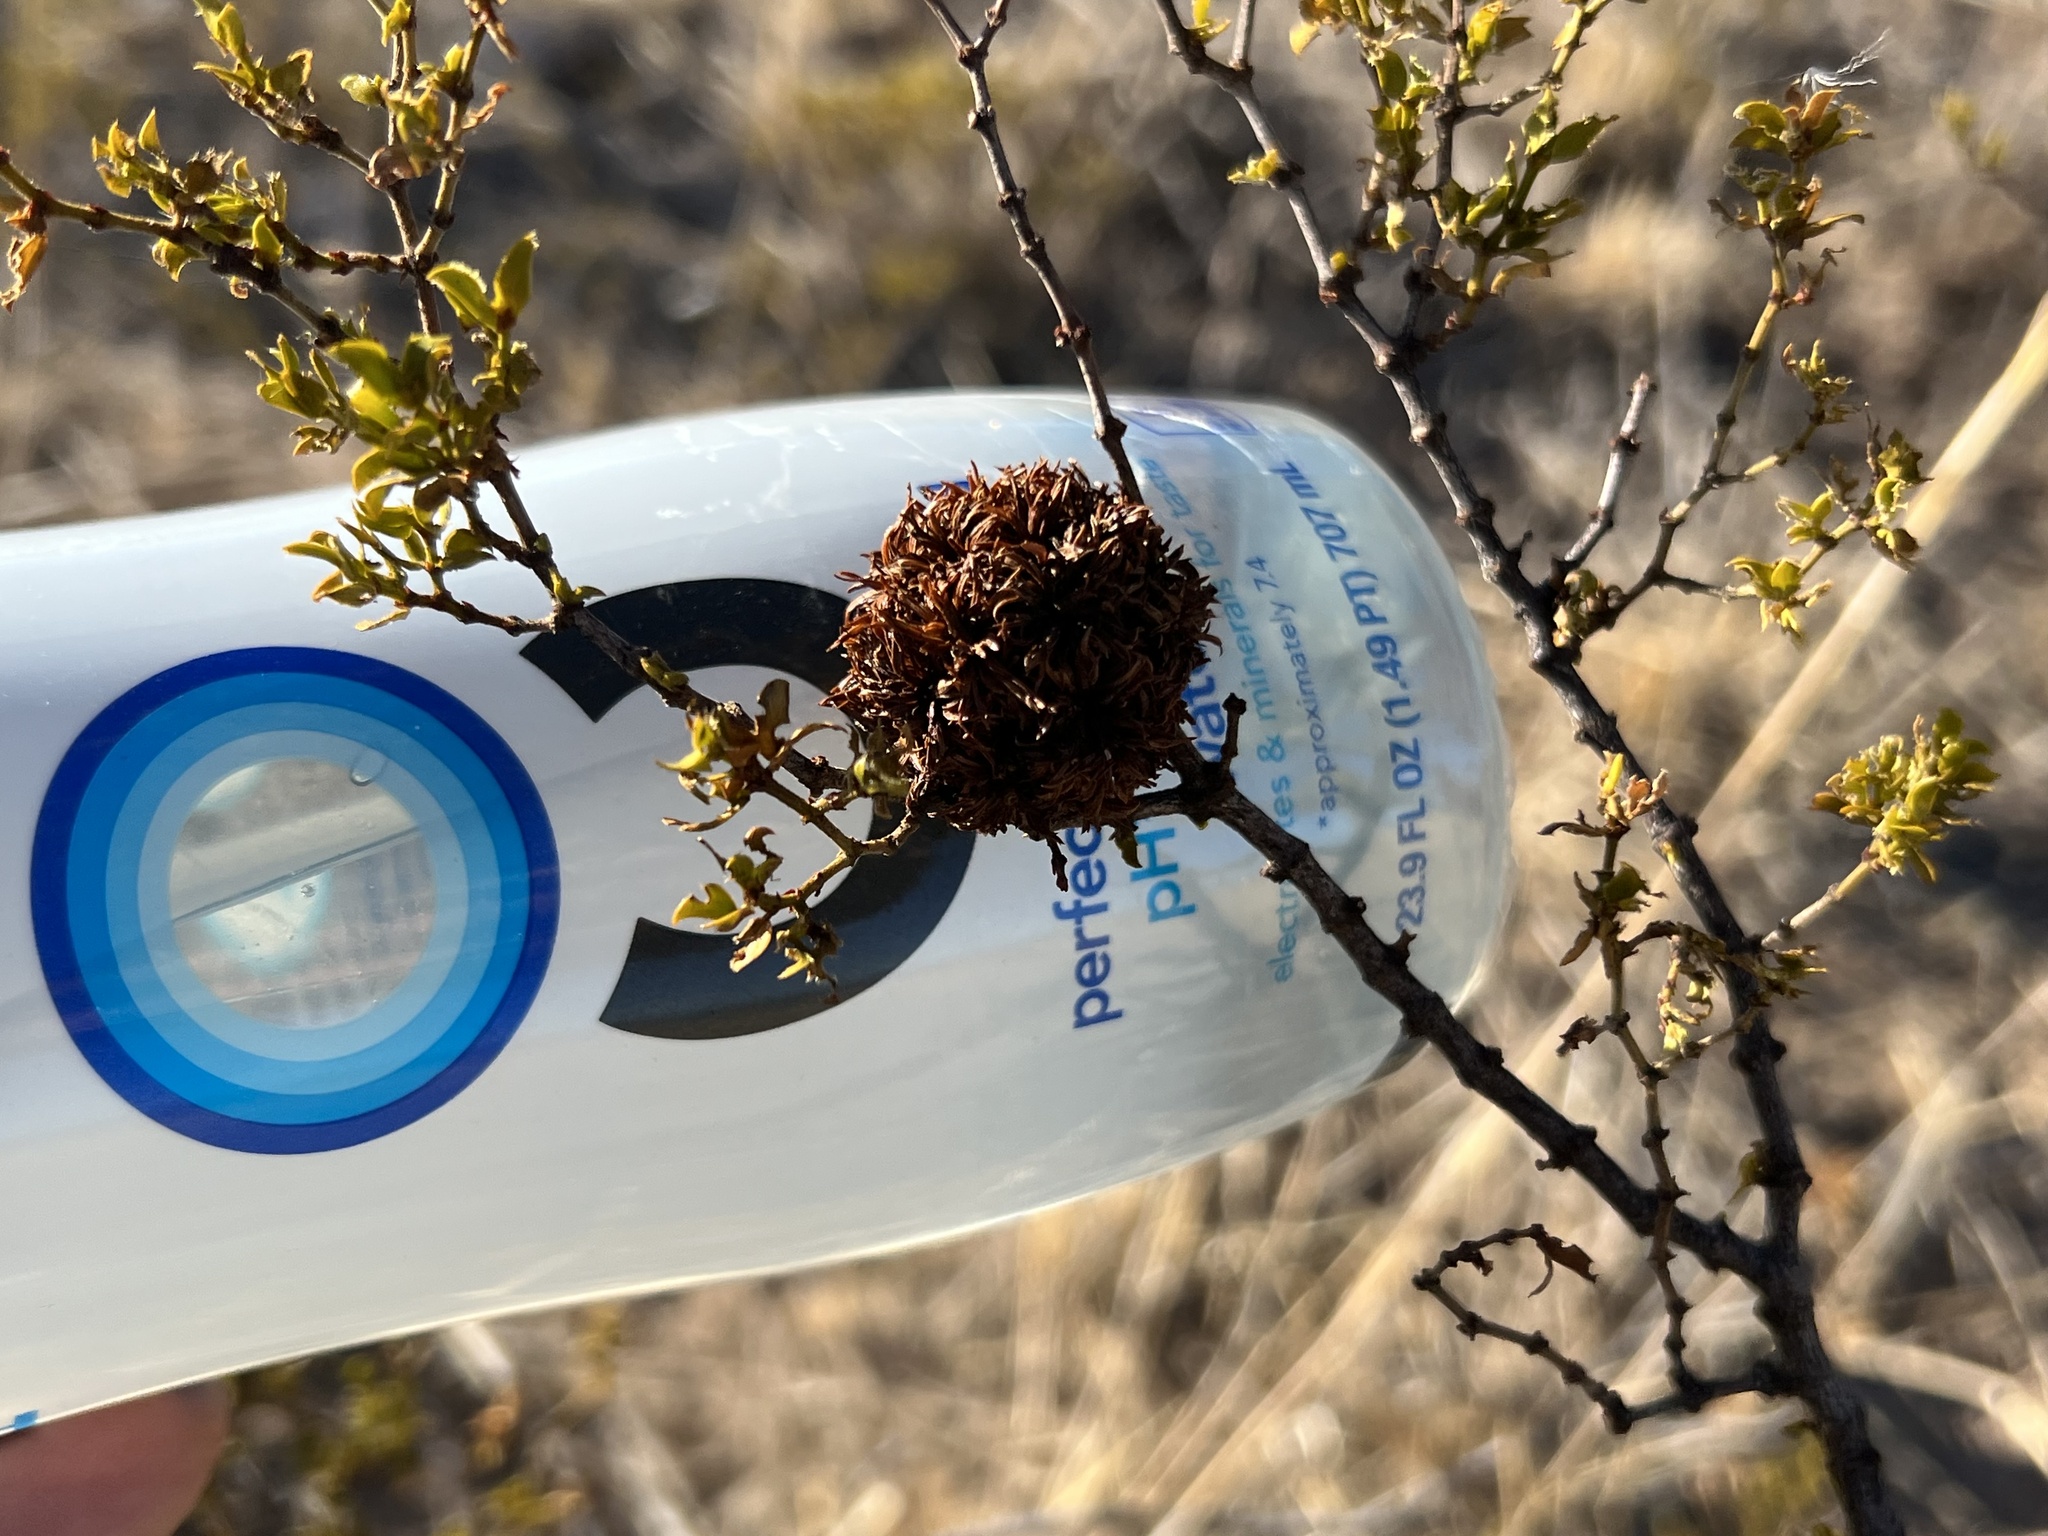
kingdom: Animalia
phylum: Arthropoda
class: Insecta
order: Diptera
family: Cecidomyiidae
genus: Asphondylia
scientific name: Asphondylia auripila
